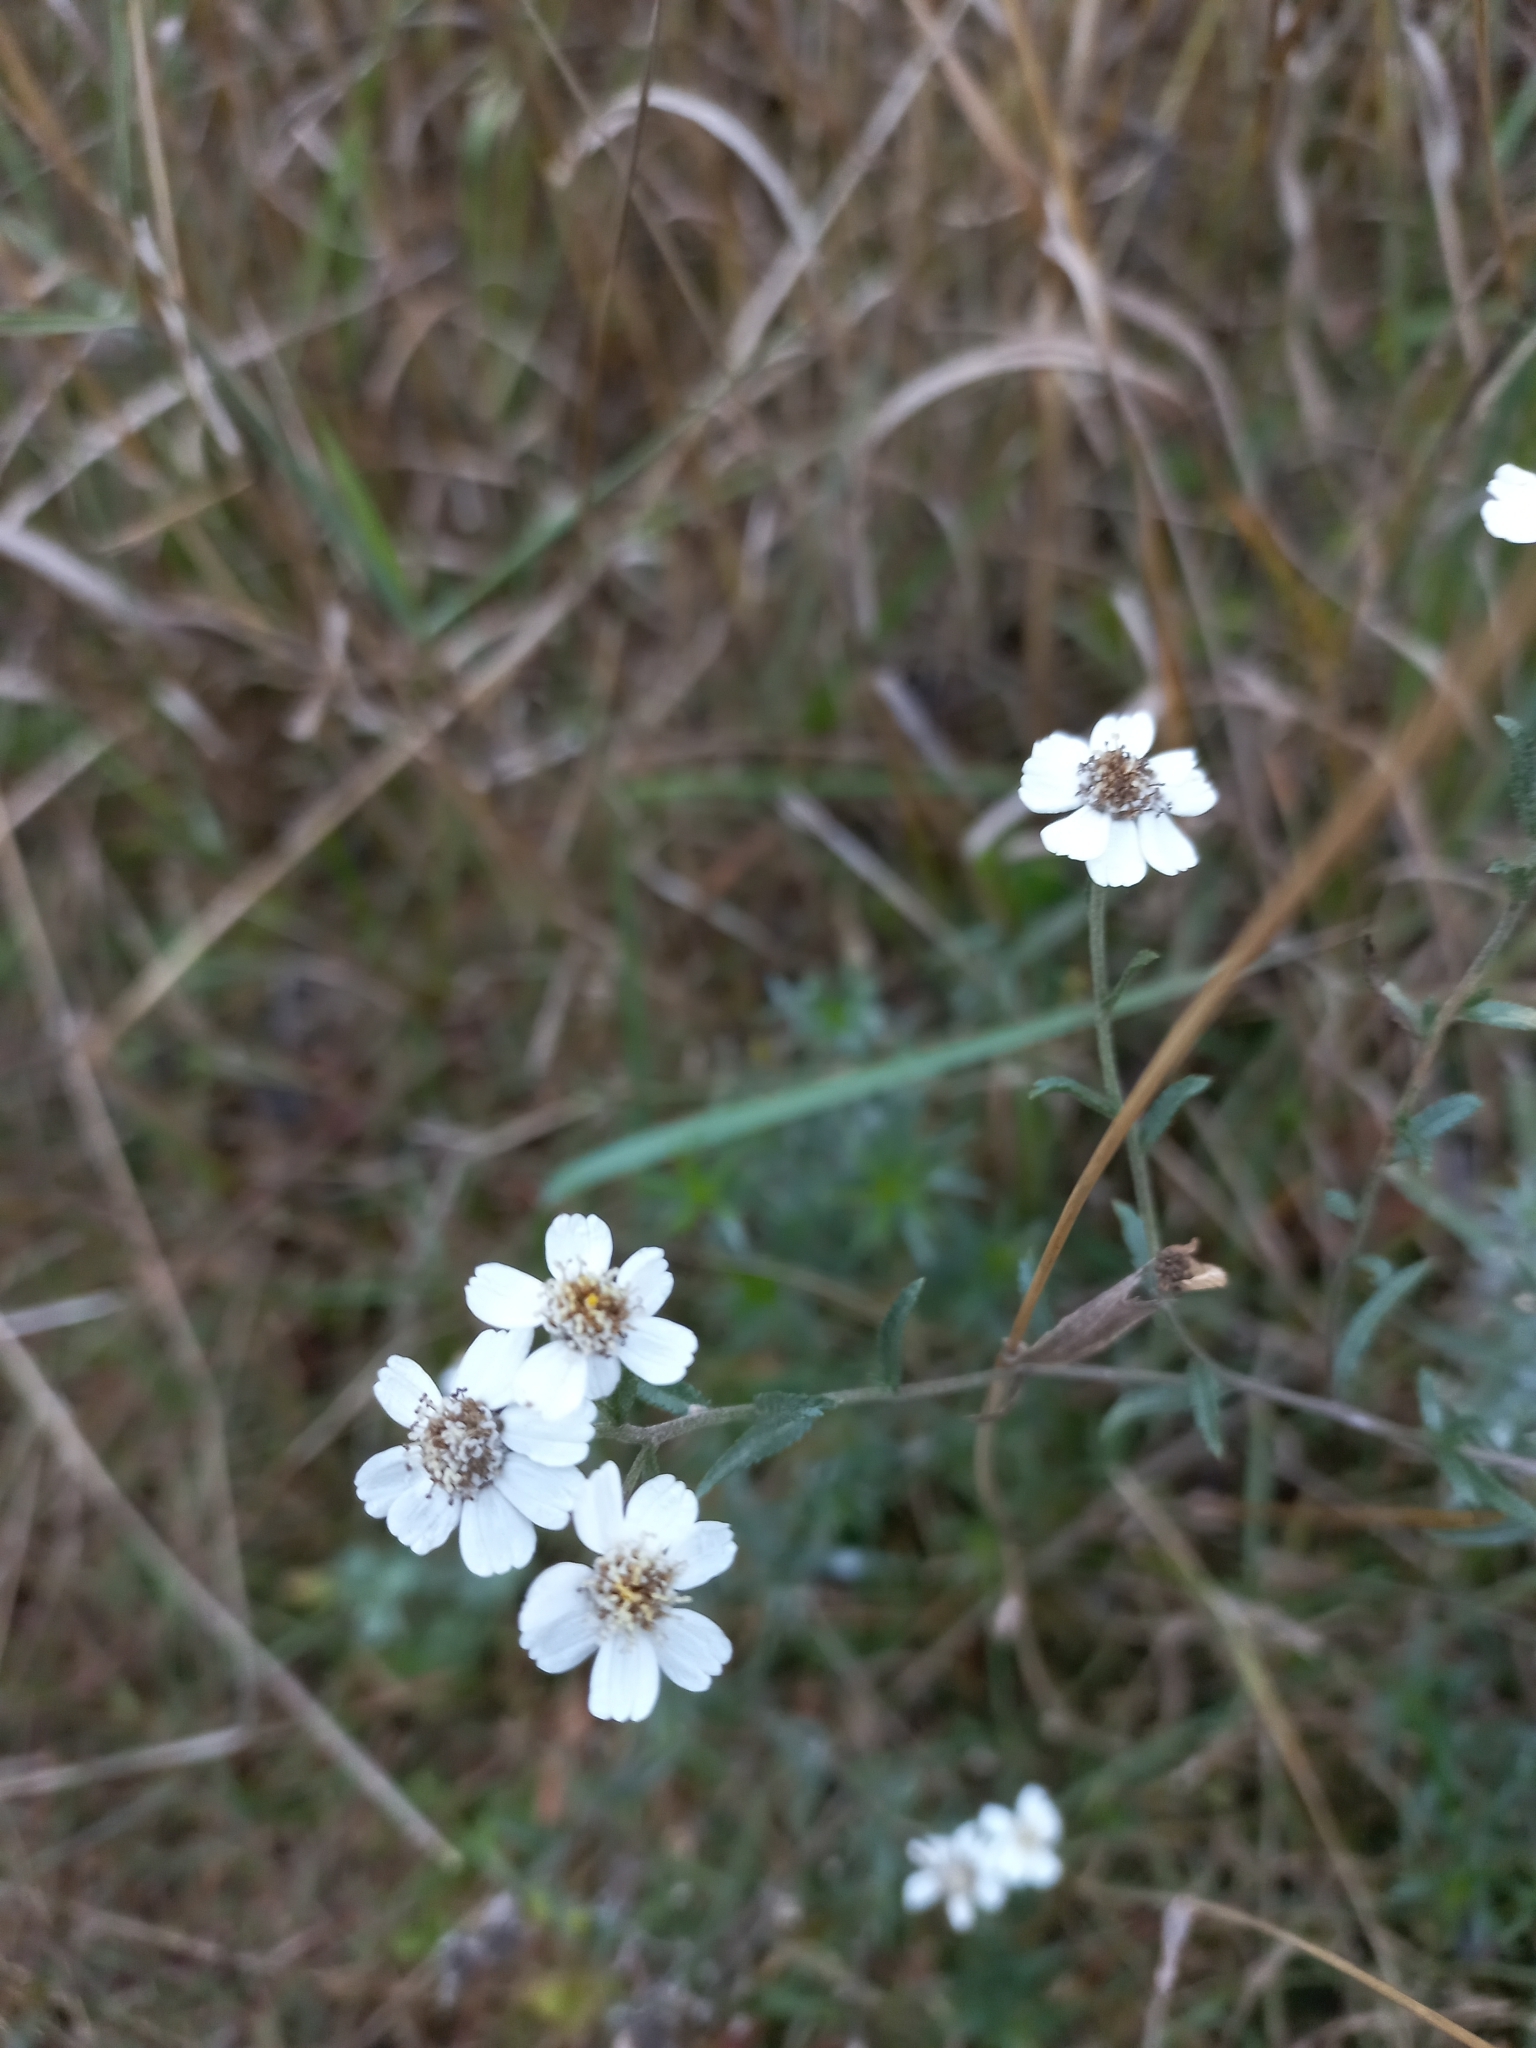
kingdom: Plantae
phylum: Tracheophyta
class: Magnoliopsida
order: Asterales
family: Asteraceae
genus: Achillea
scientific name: Achillea ptarmica
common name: Sneezeweed
